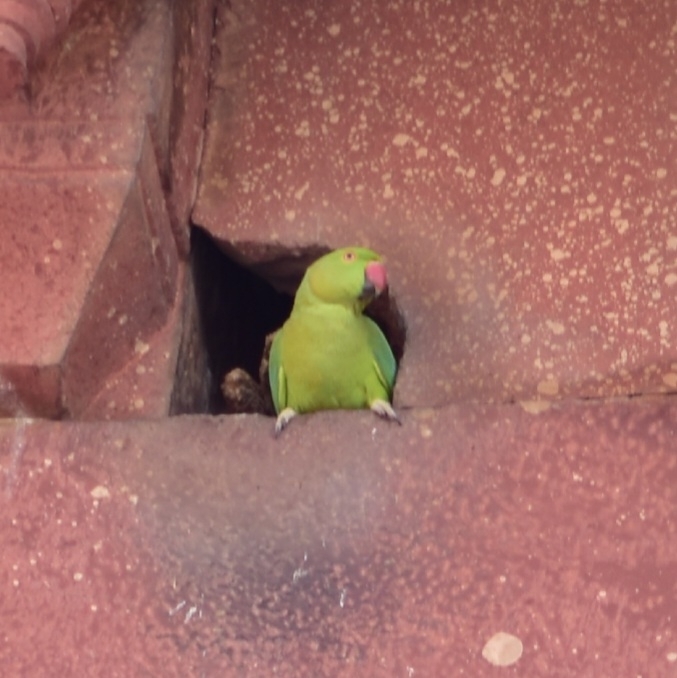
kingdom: Animalia
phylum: Chordata
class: Aves
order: Psittaciformes
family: Psittacidae
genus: Psittacula
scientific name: Psittacula krameri
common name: Rose-ringed parakeet
